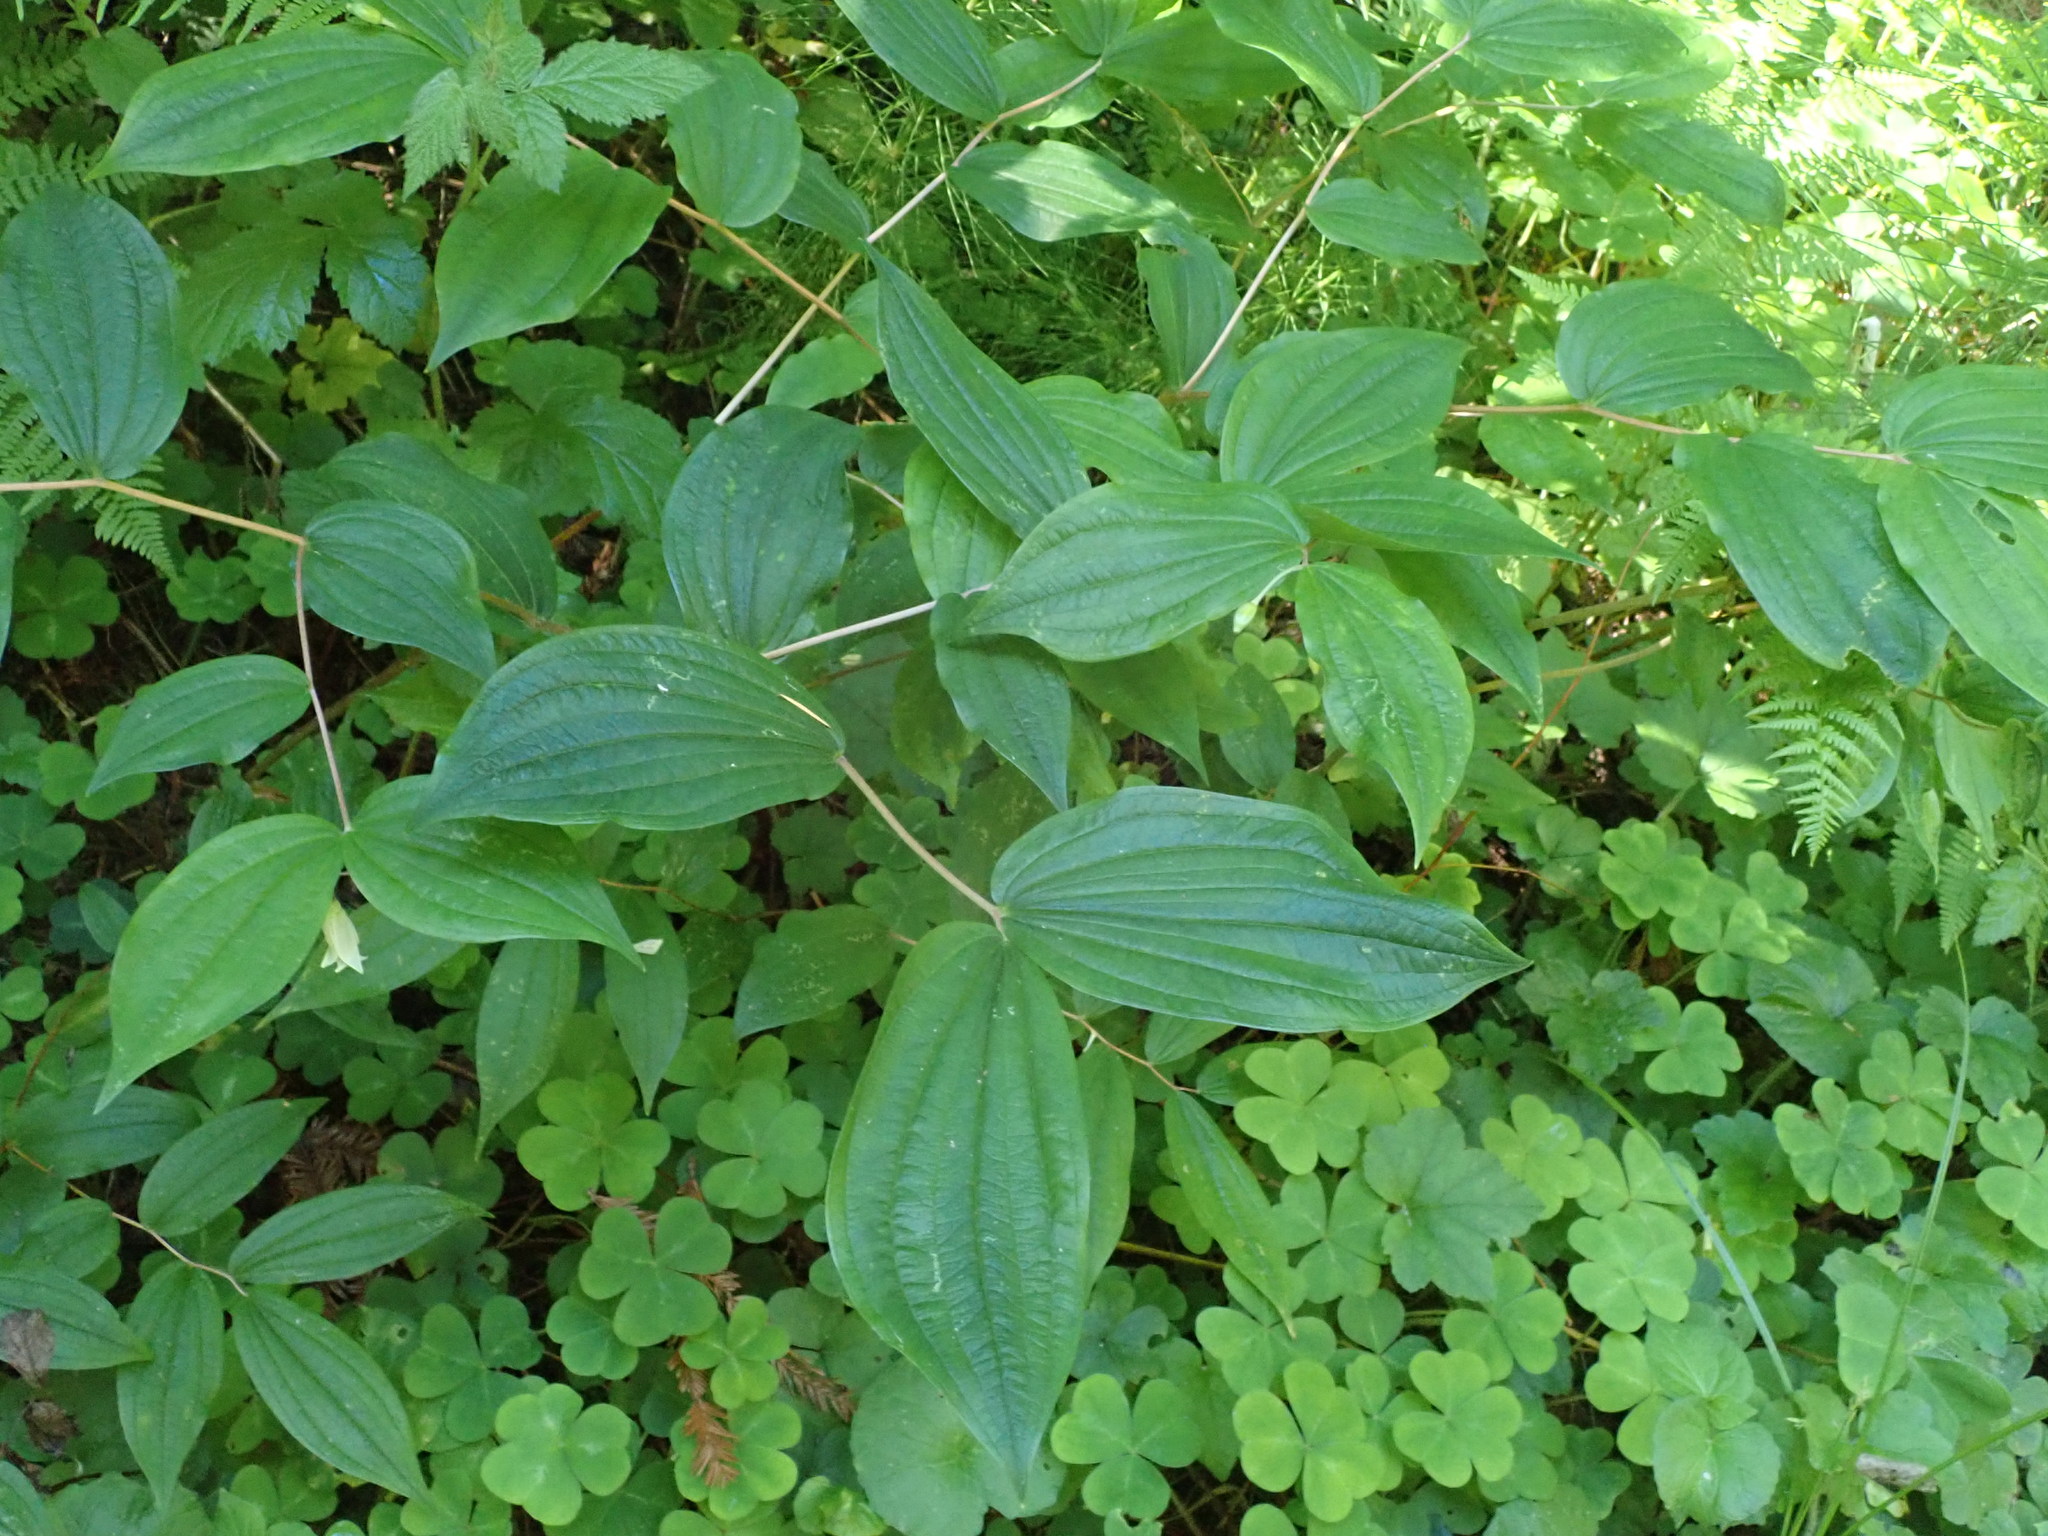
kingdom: Plantae
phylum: Tracheophyta
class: Liliopsida
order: Liliales
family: Liliaceae
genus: Prosartes
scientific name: Prosartes smithii
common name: Fairy-lantern
